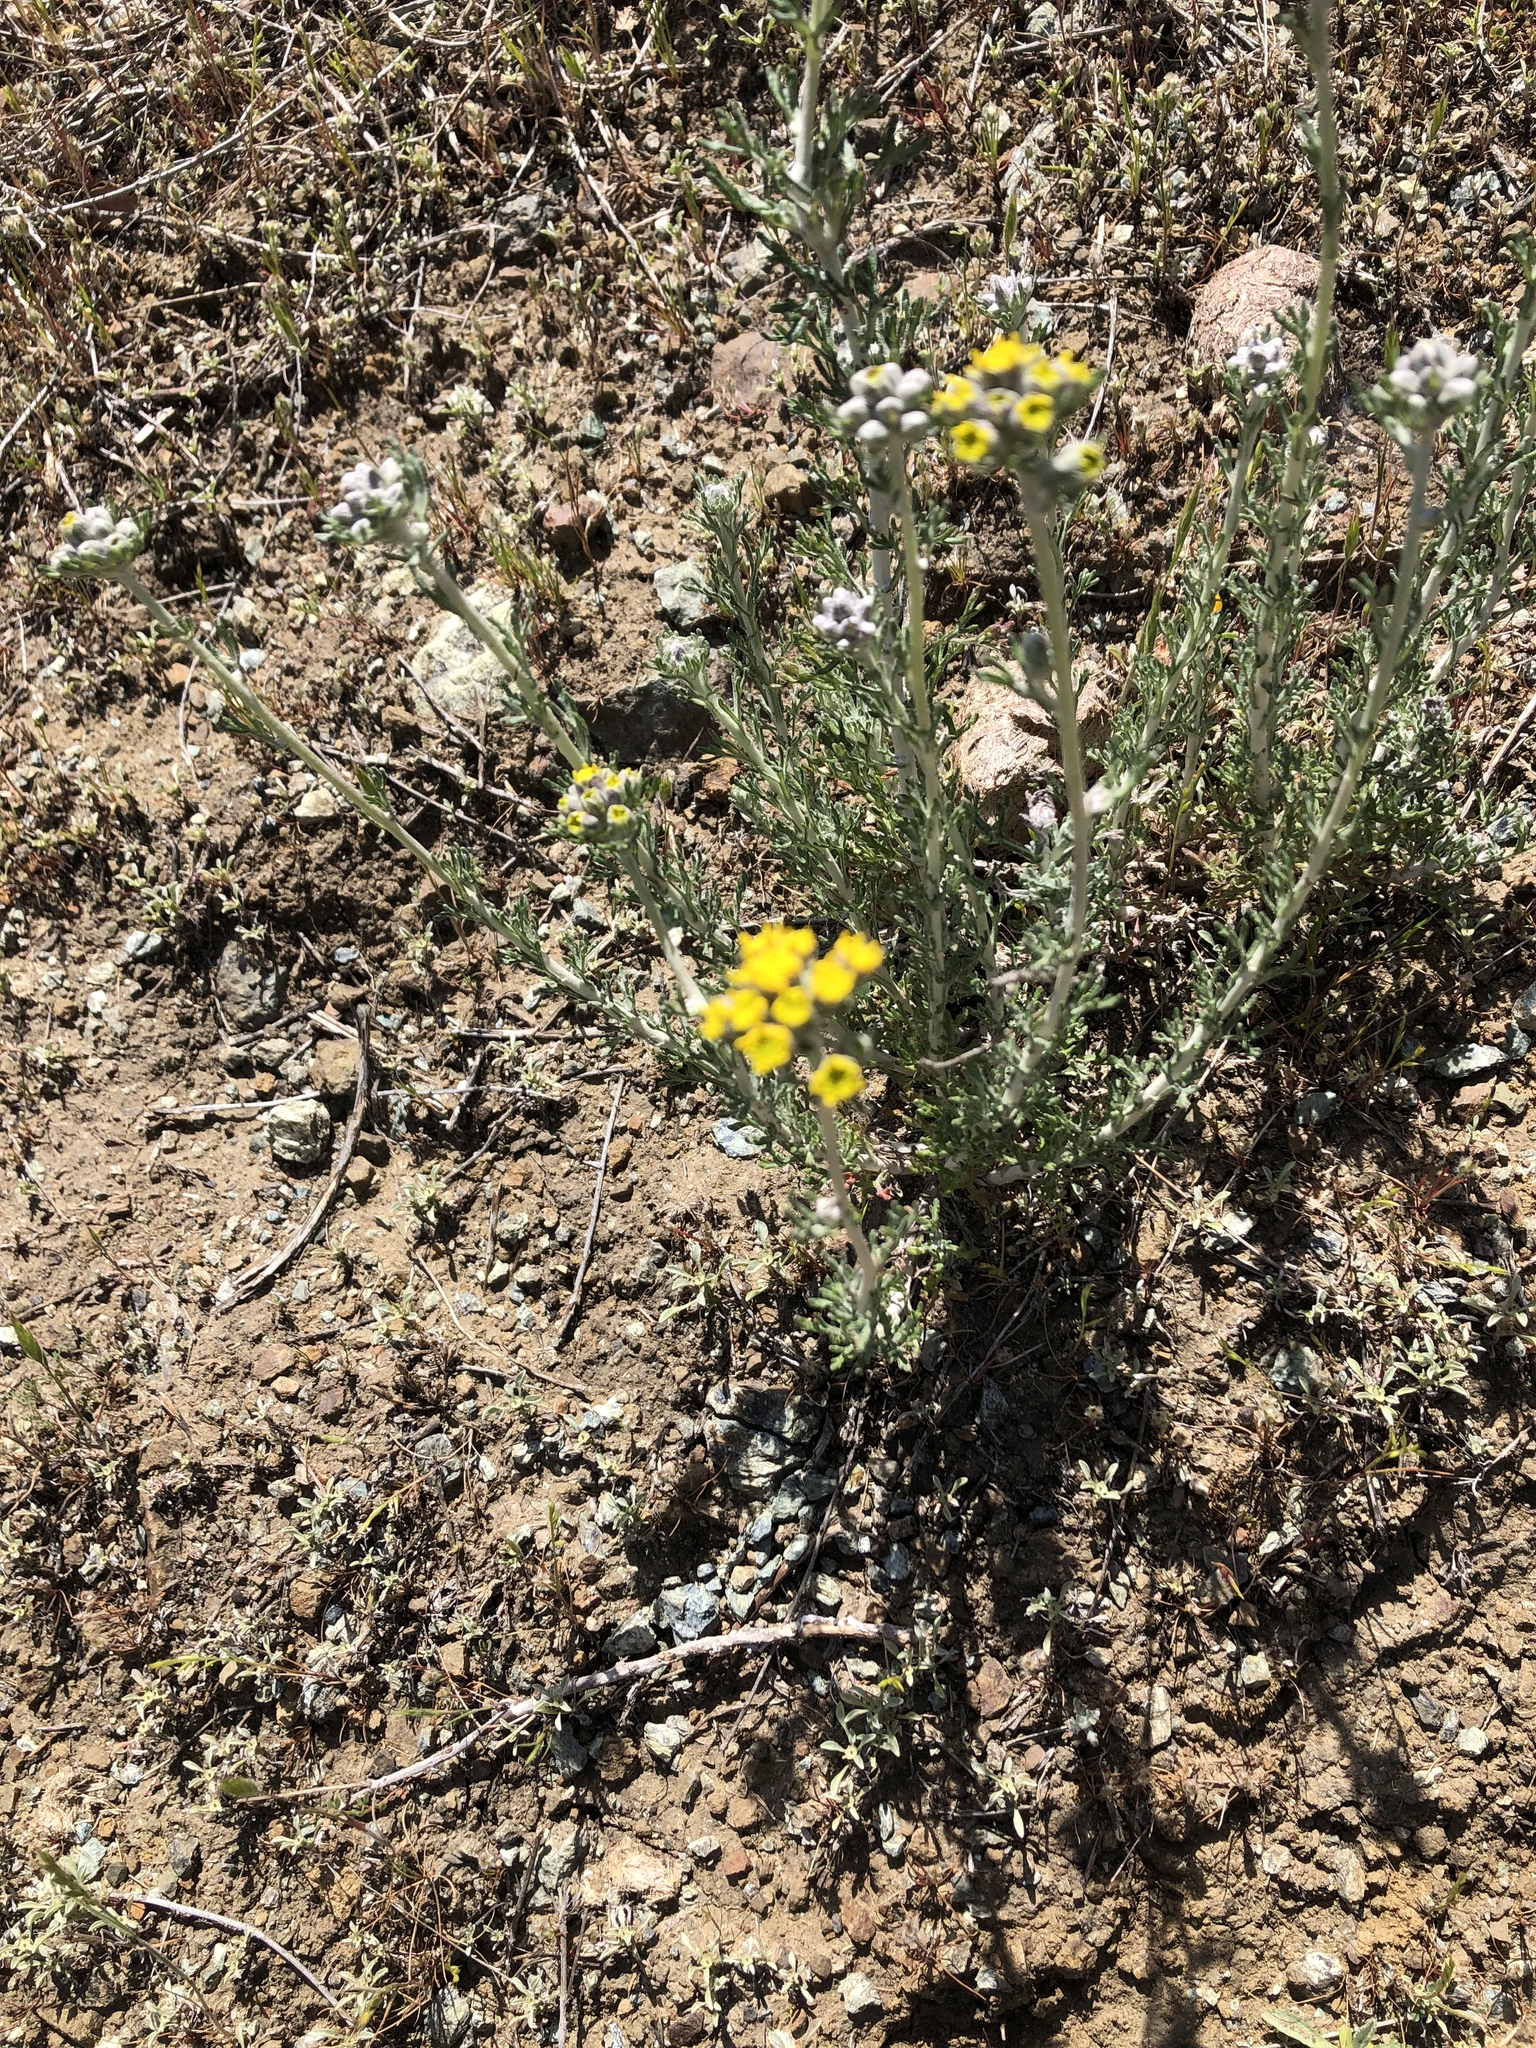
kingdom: Plantae
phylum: Tracheophyta
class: Magnoliopsida
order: Asterales
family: Asteraceae
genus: Eriophyllum
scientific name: Eriophyllum confertiflorum
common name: Golden-yarrow
